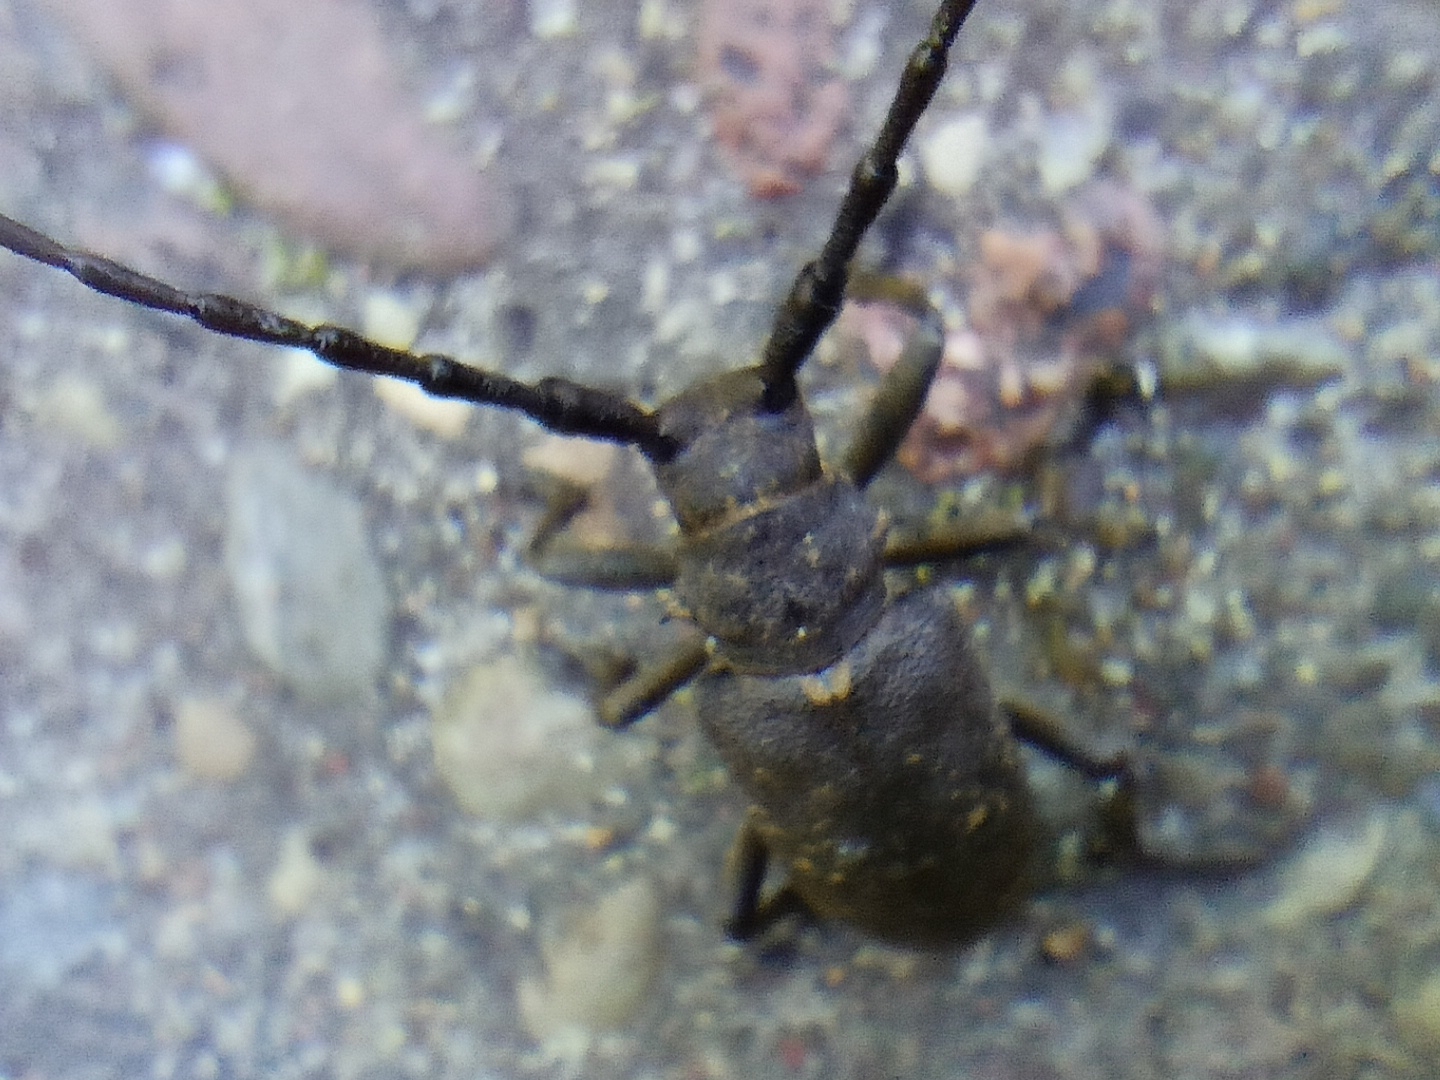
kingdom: Animalia
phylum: Arthropoda
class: Insecta
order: Coleoptera
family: Cerambycidae
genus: Lamia
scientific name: Lamia textor
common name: Weaver beetle
